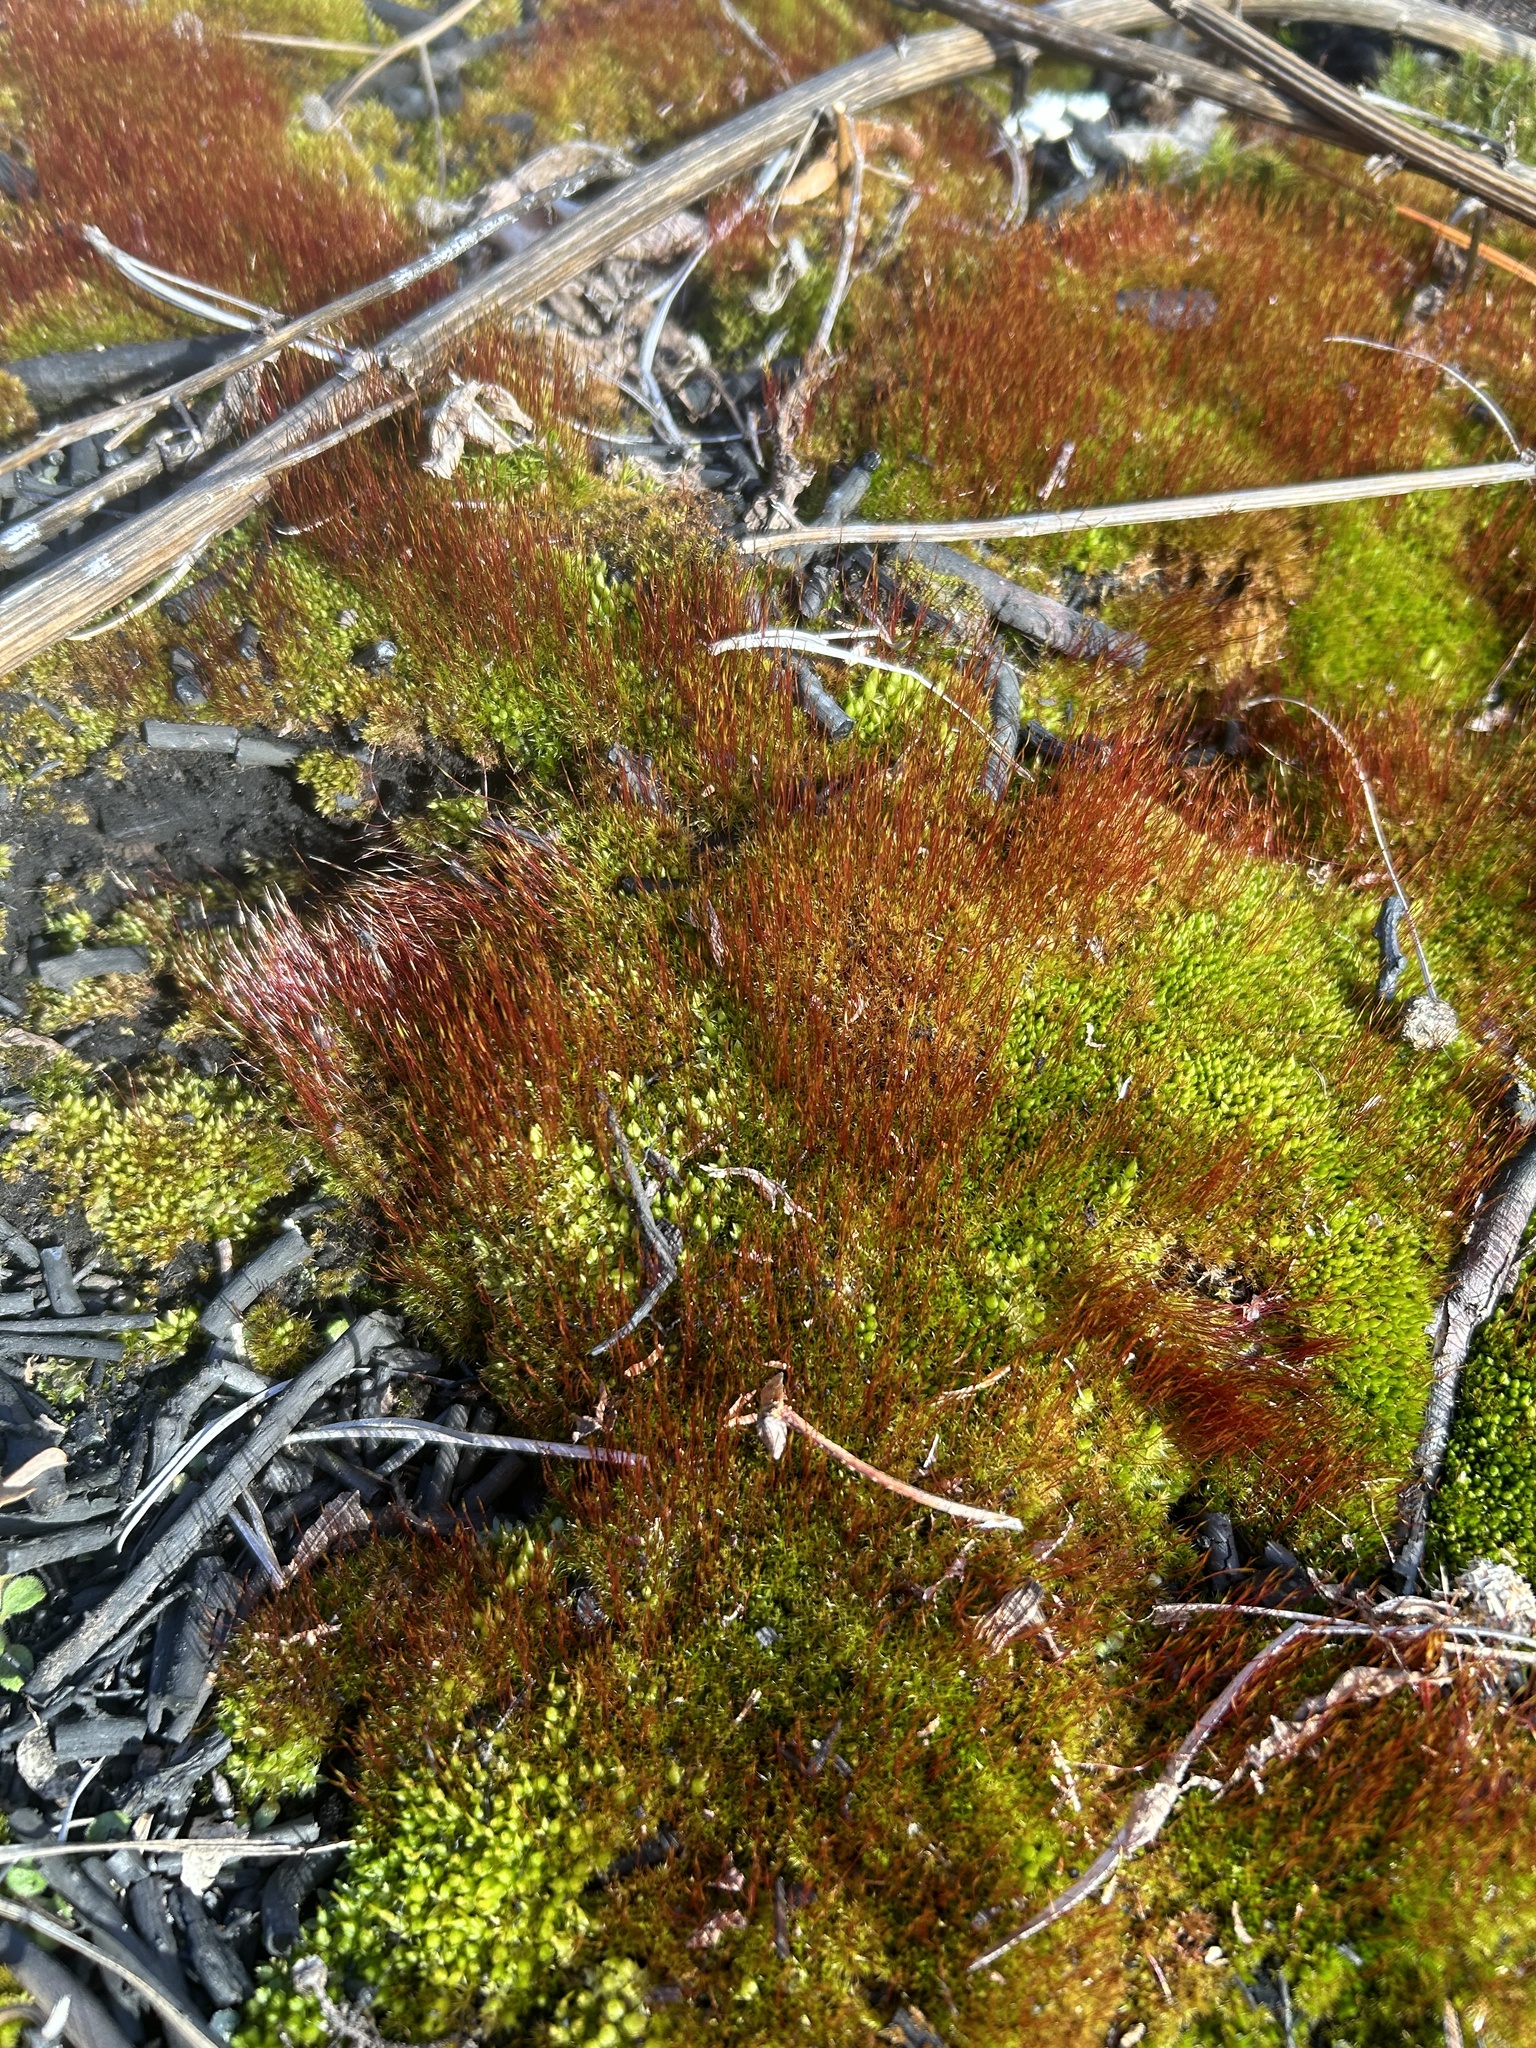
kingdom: Plantae
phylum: Bryophyta
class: Bryopsida
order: Dicranales
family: Ditrichaceae
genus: Ceratodon
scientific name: Ceratodon purpureus
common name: Redshank
